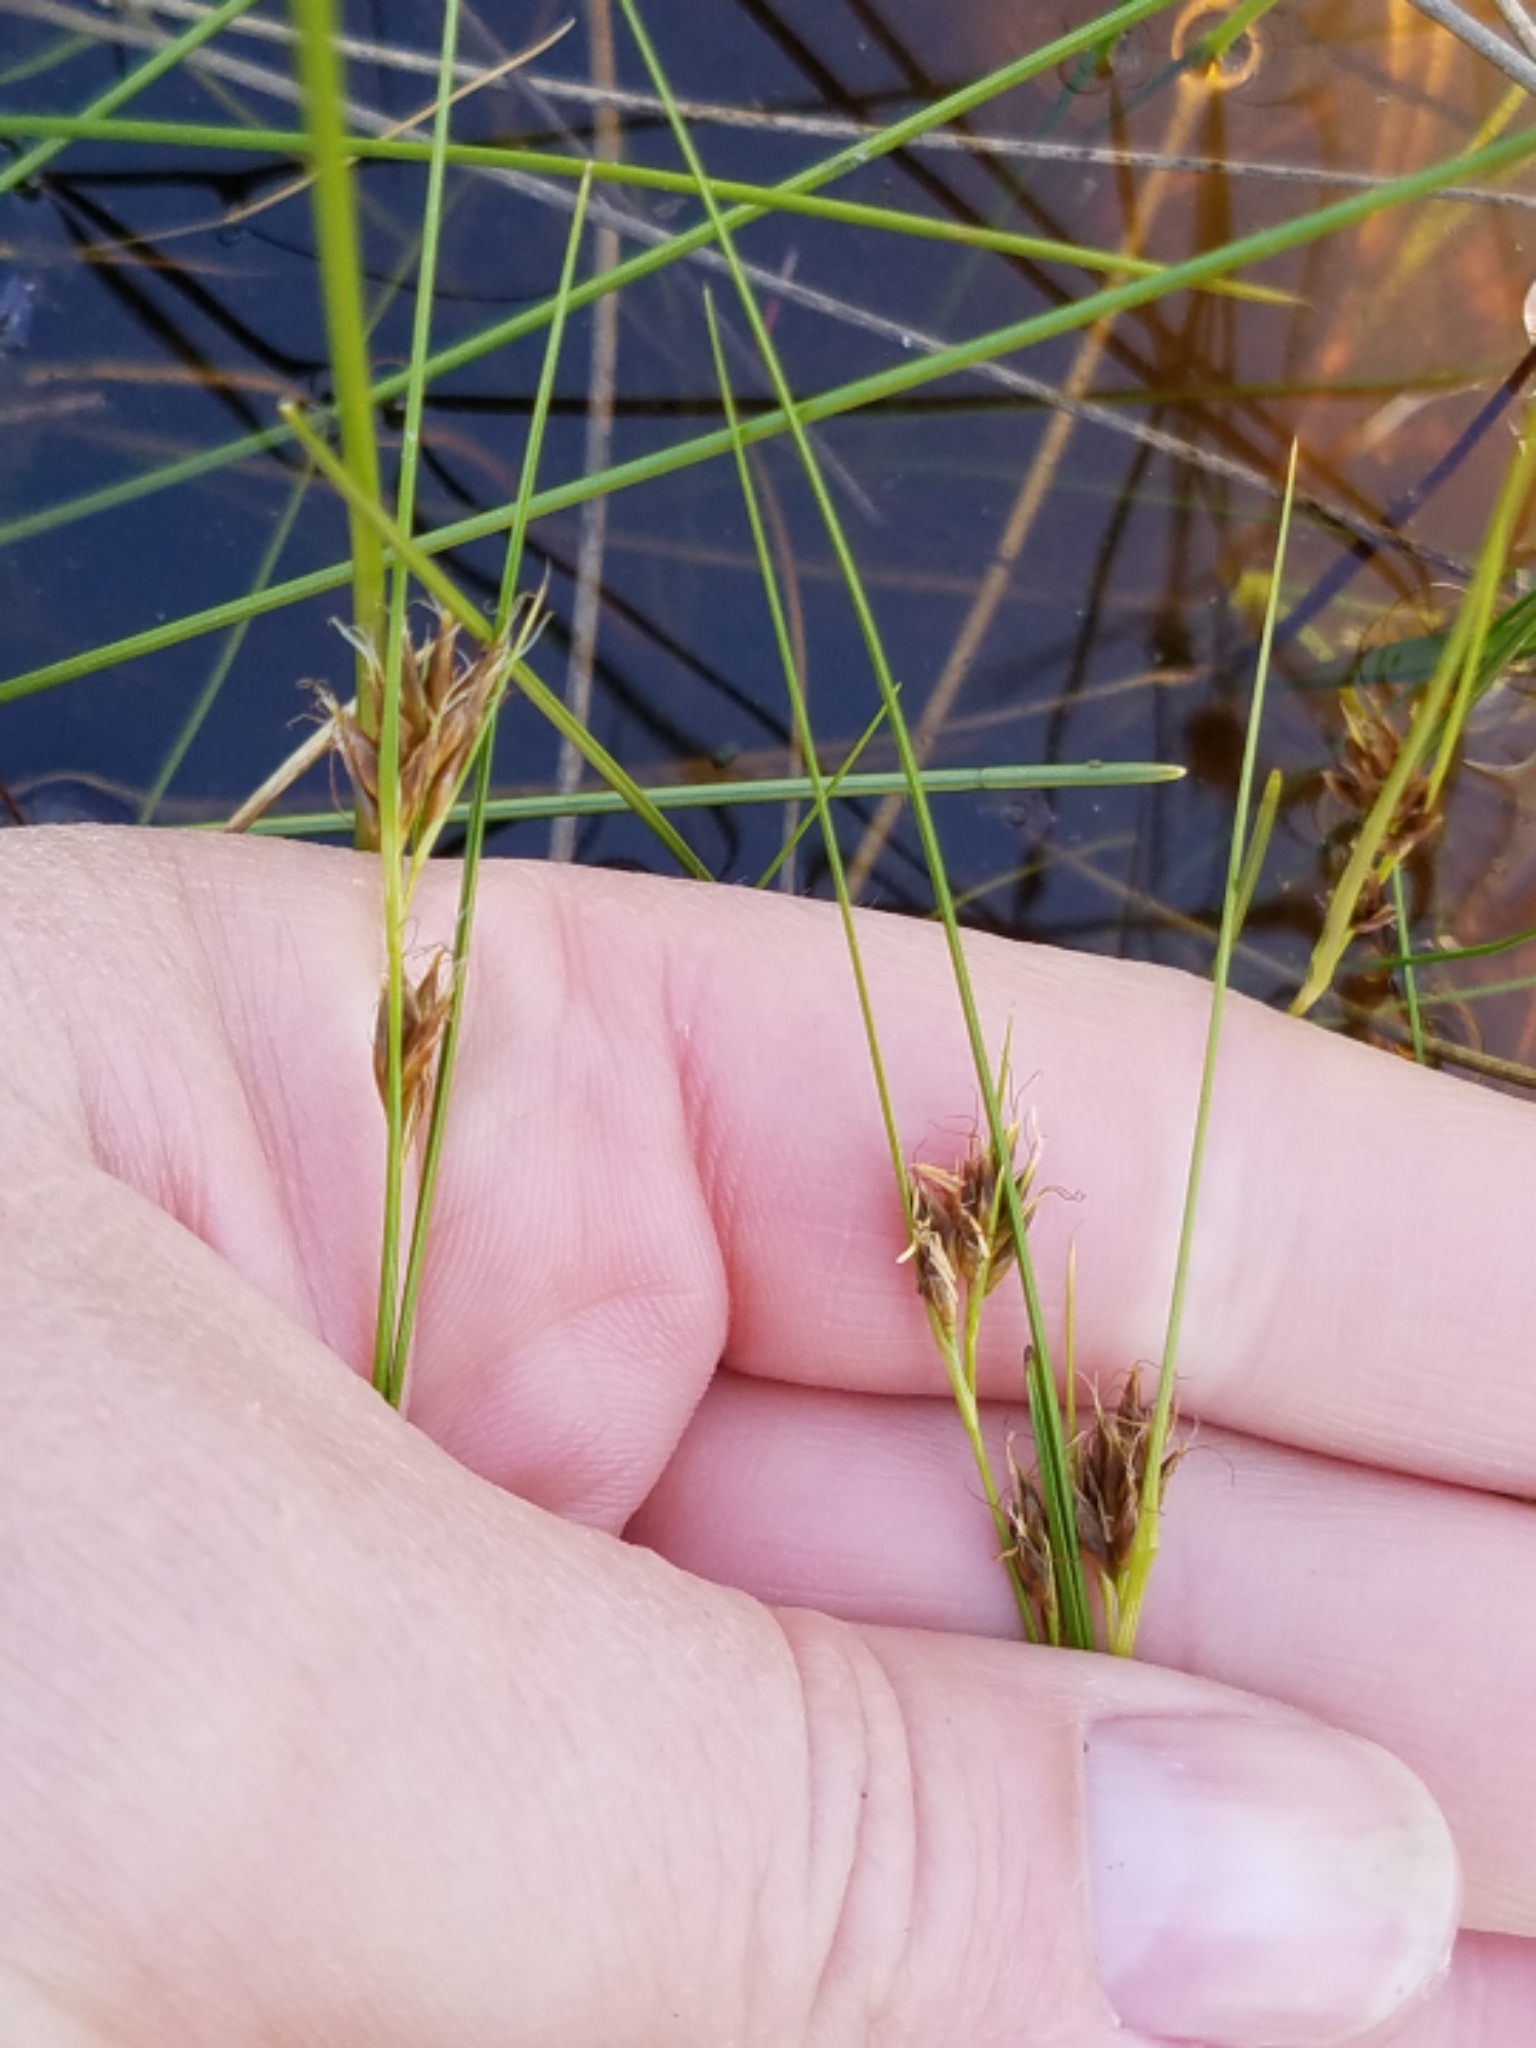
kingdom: Plantae
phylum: Tracheophyta
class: Liliopsida
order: Poales
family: Cyperaceae
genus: Rhynchospora
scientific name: Rhynchospora fusca
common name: Brown beak-sedge
